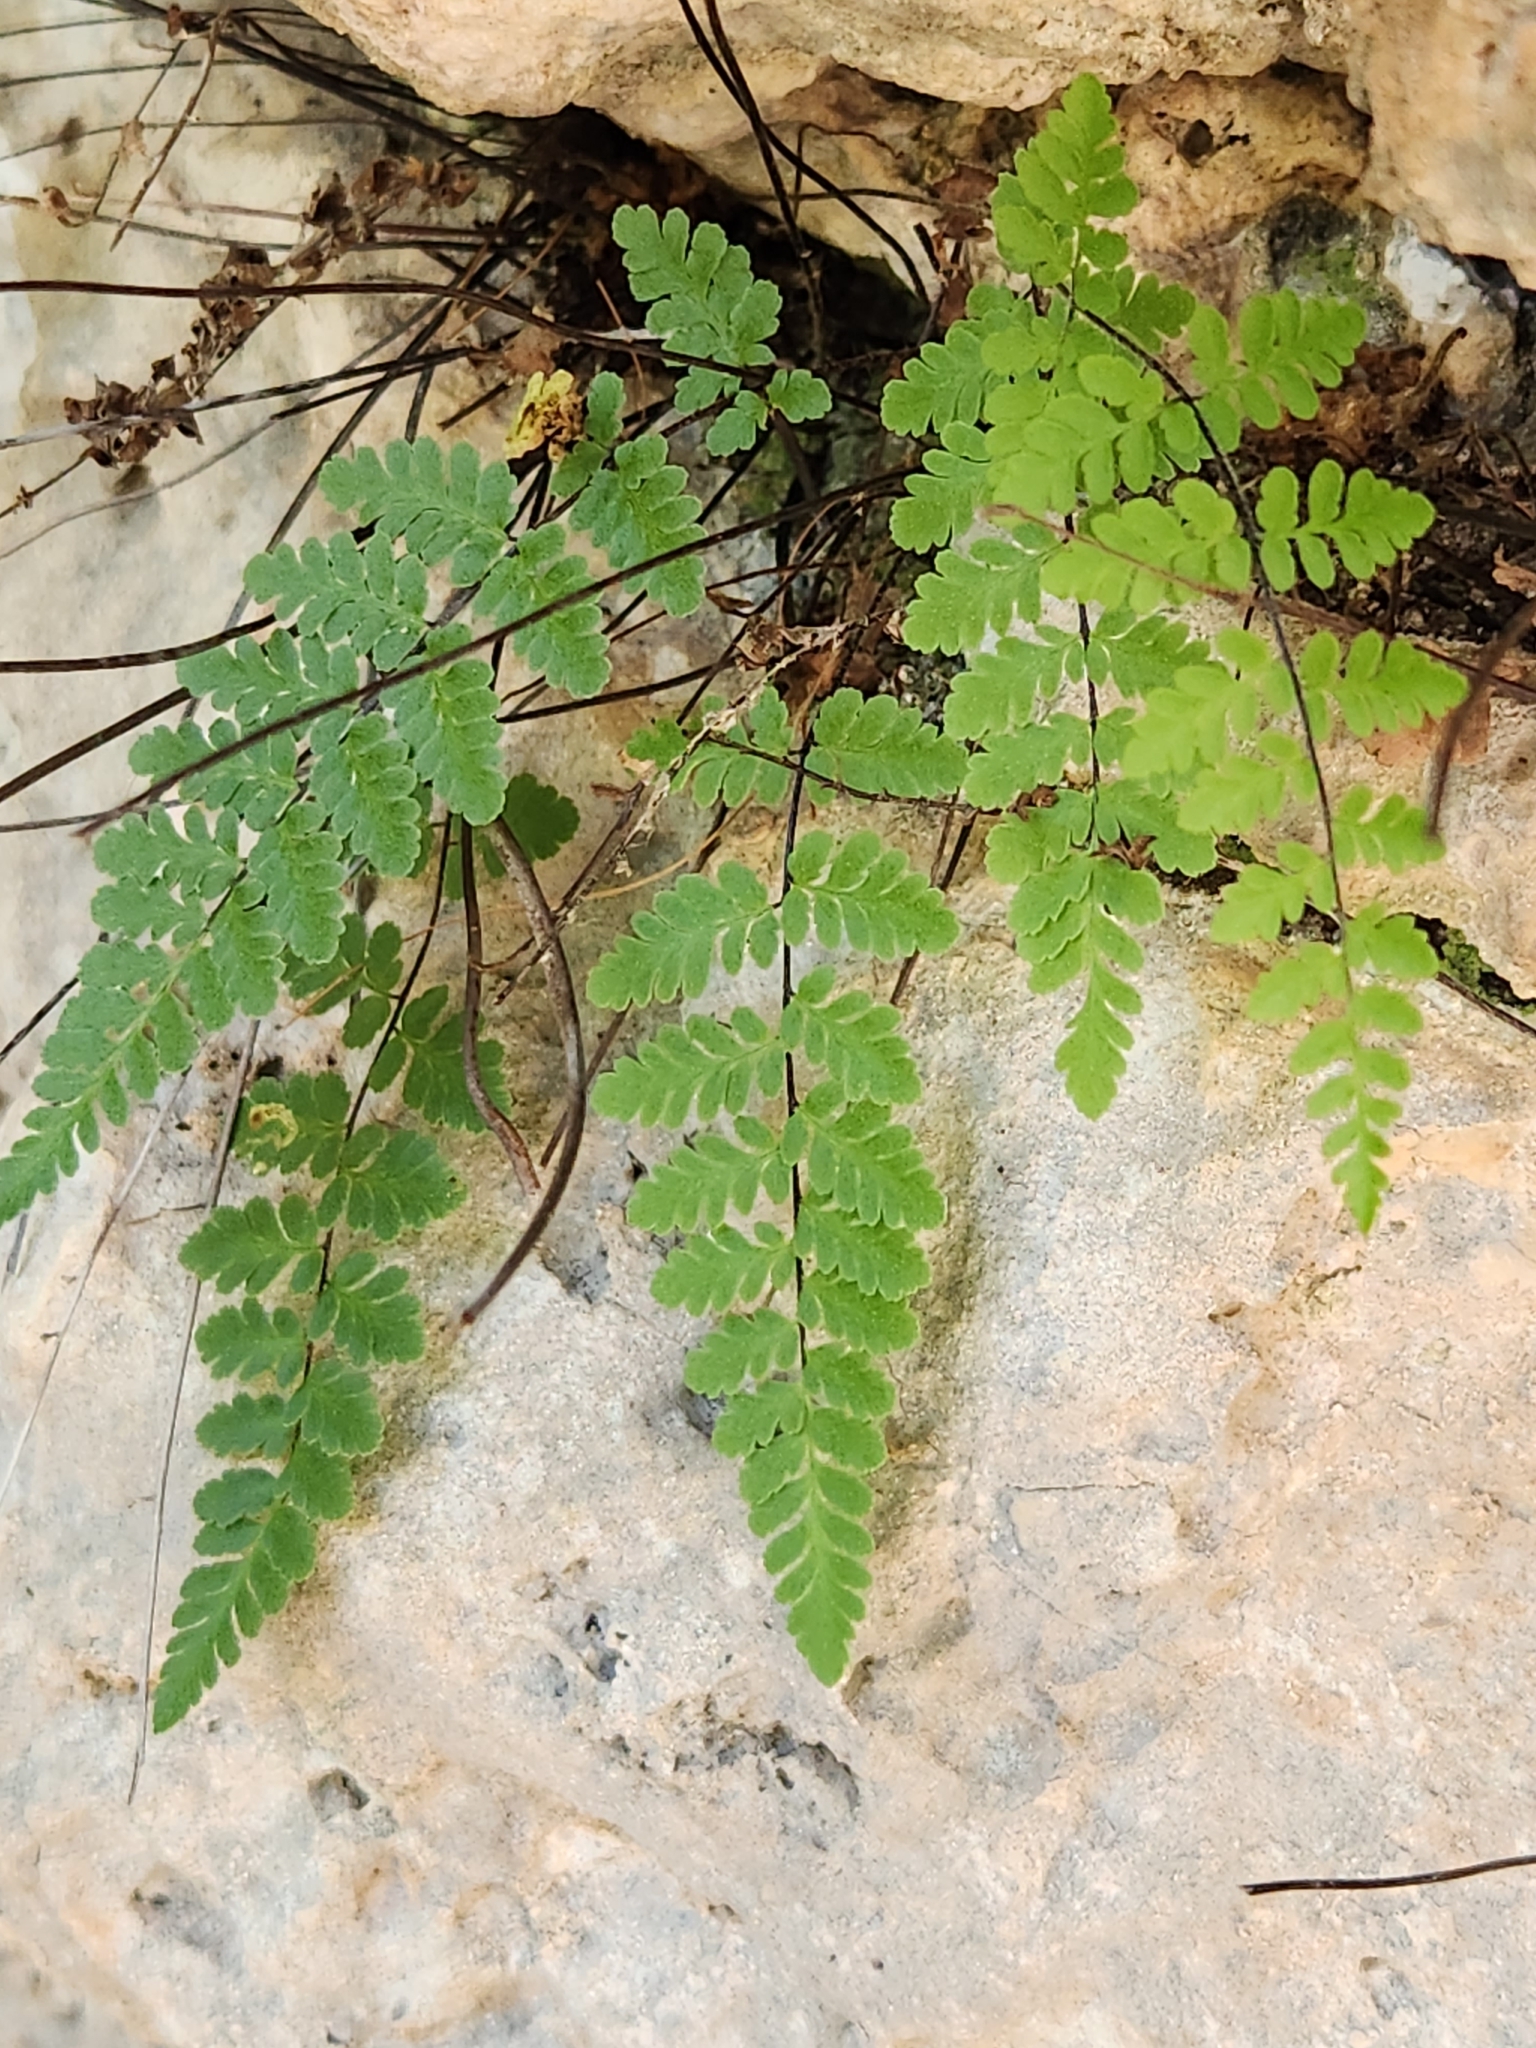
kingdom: Plantae
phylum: Tracheophyta
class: Polypodiopsida
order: Polypodiales
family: Pteridaceae
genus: Myriopteris
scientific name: Myriopteris alabamensis
